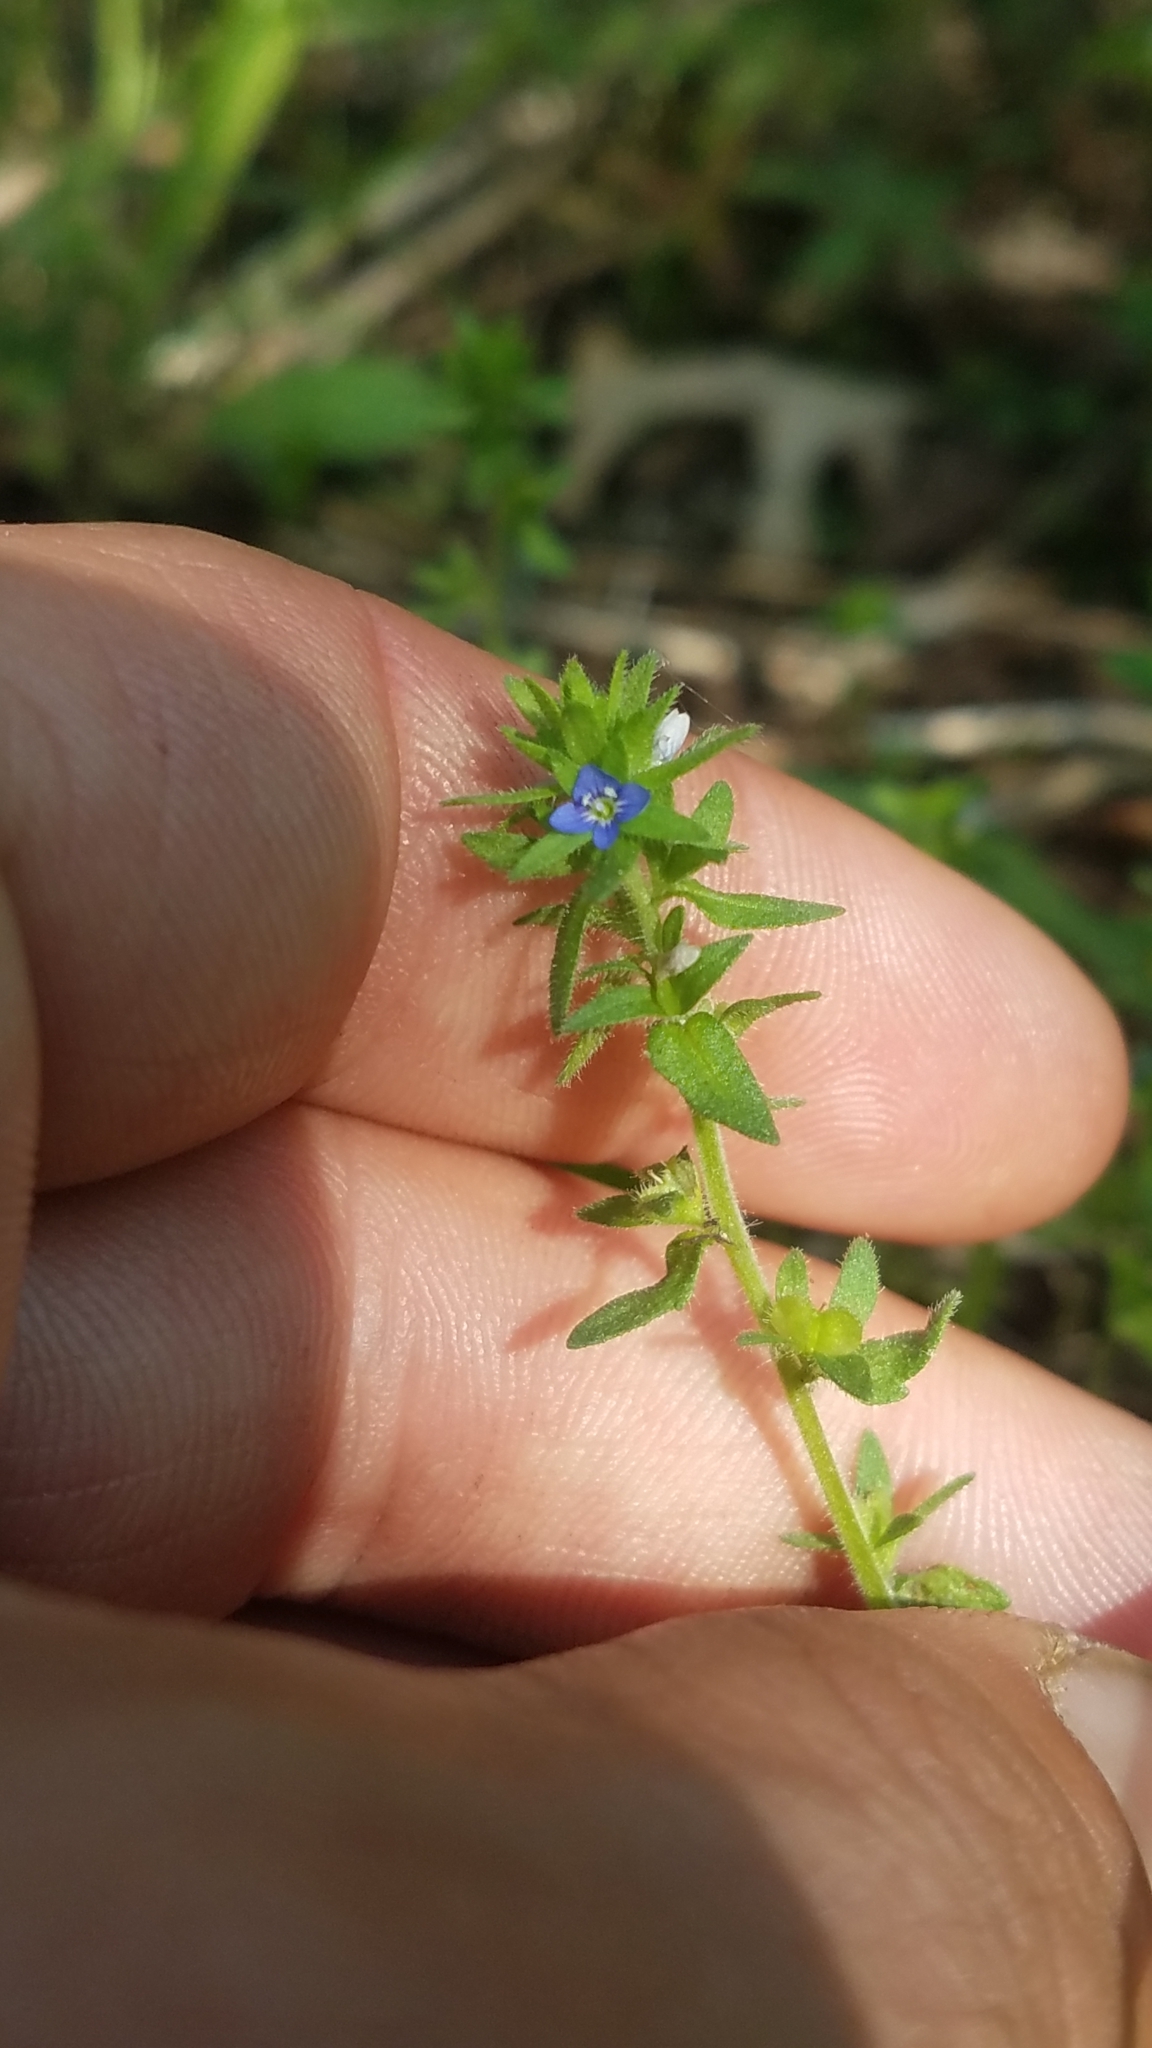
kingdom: Plantae
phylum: Tracheophyta
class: Magnoliopsida
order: Lamiales
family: Plantaginaceae
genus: Veronica
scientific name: Veronica arvensis
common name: Corn speedwell
